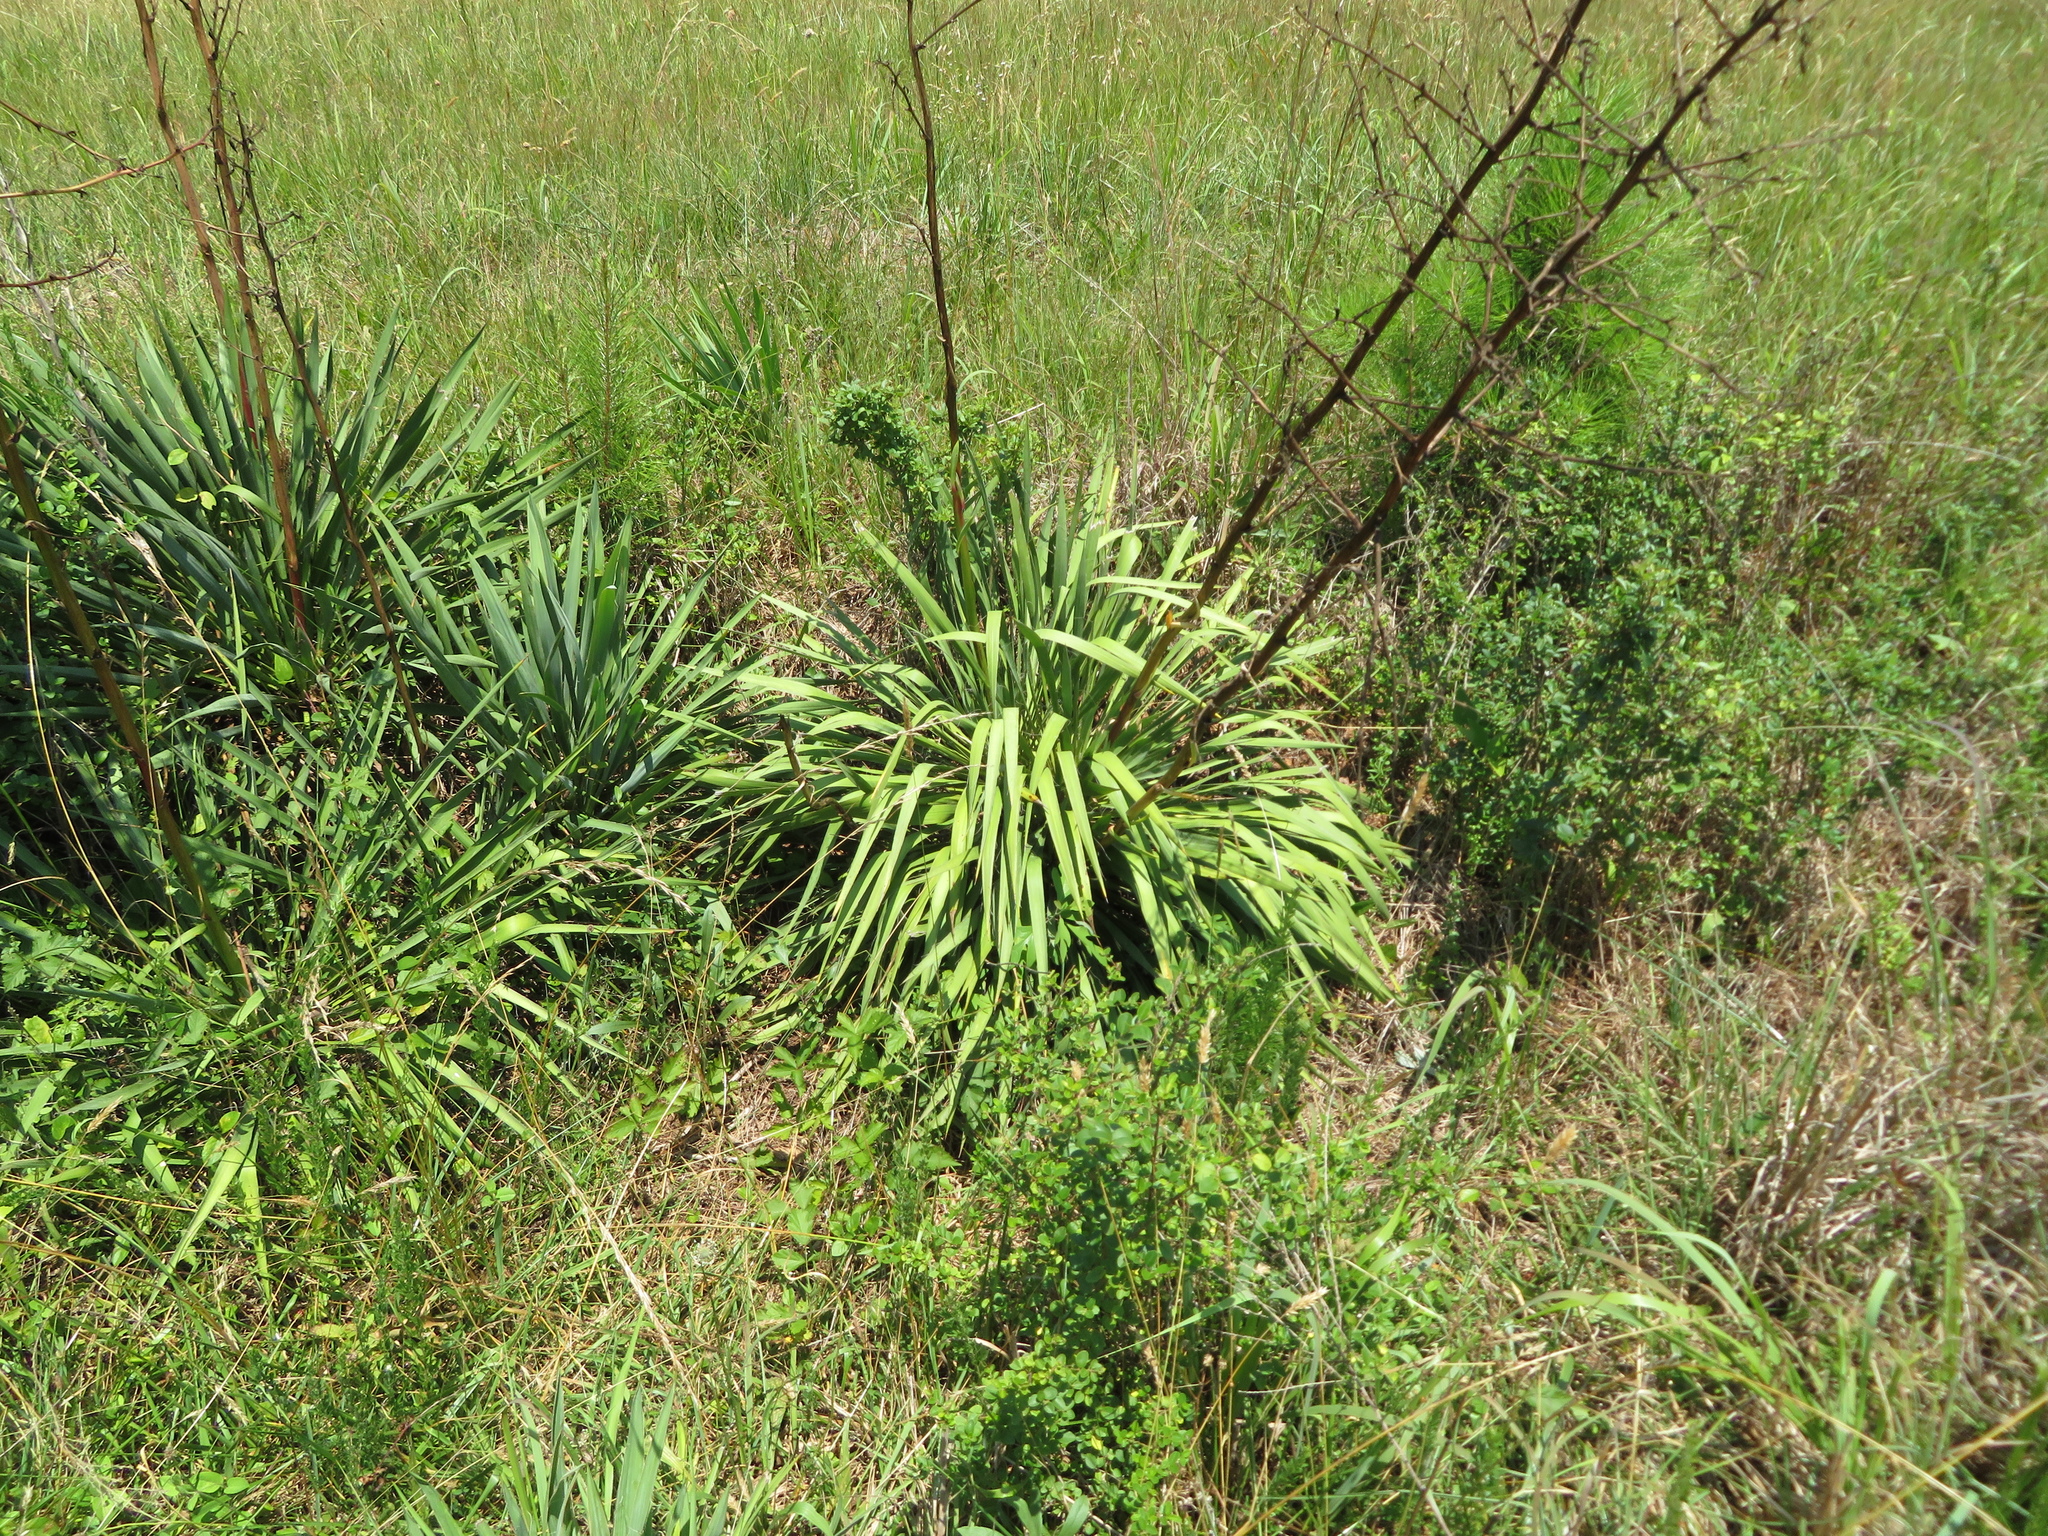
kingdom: Plantae
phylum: Tracheophyta
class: Liliopsida
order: Asparagales
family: Asparagaceae
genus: Yucca
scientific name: Yucca filamentosa
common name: Adam's-needle
